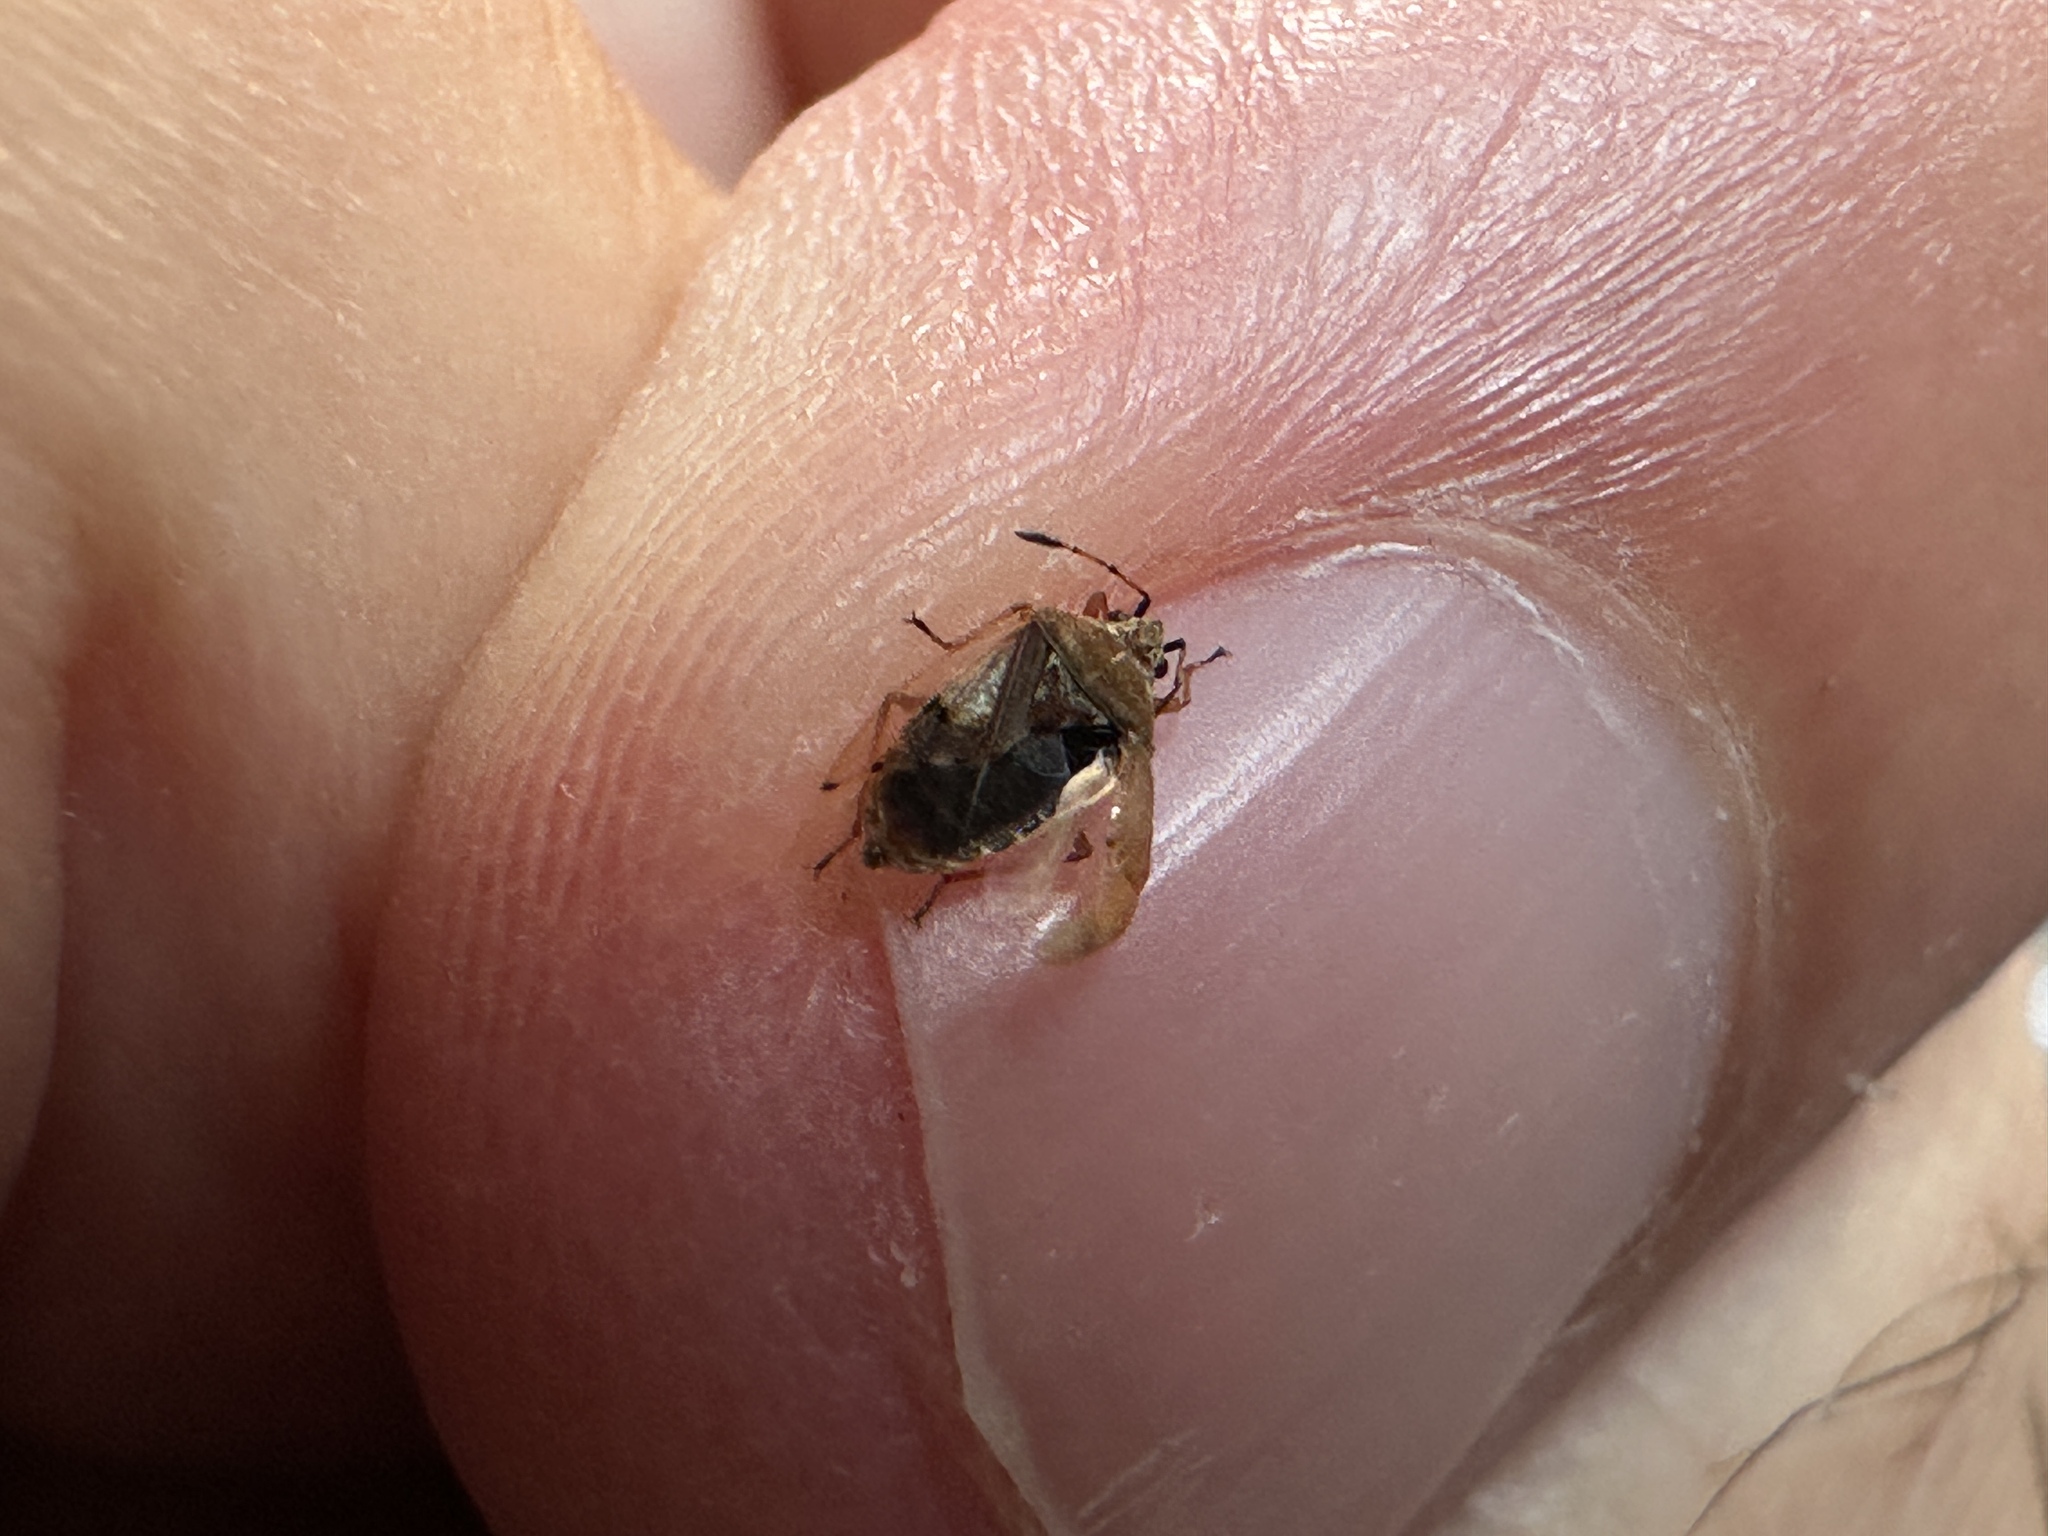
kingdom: Animalia
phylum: Arthropoda
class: Insecta
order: Hemiptera
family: Lygaeidae
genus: Kleidocerys
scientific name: Kleidocerys resedae
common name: Birch catkin bug
